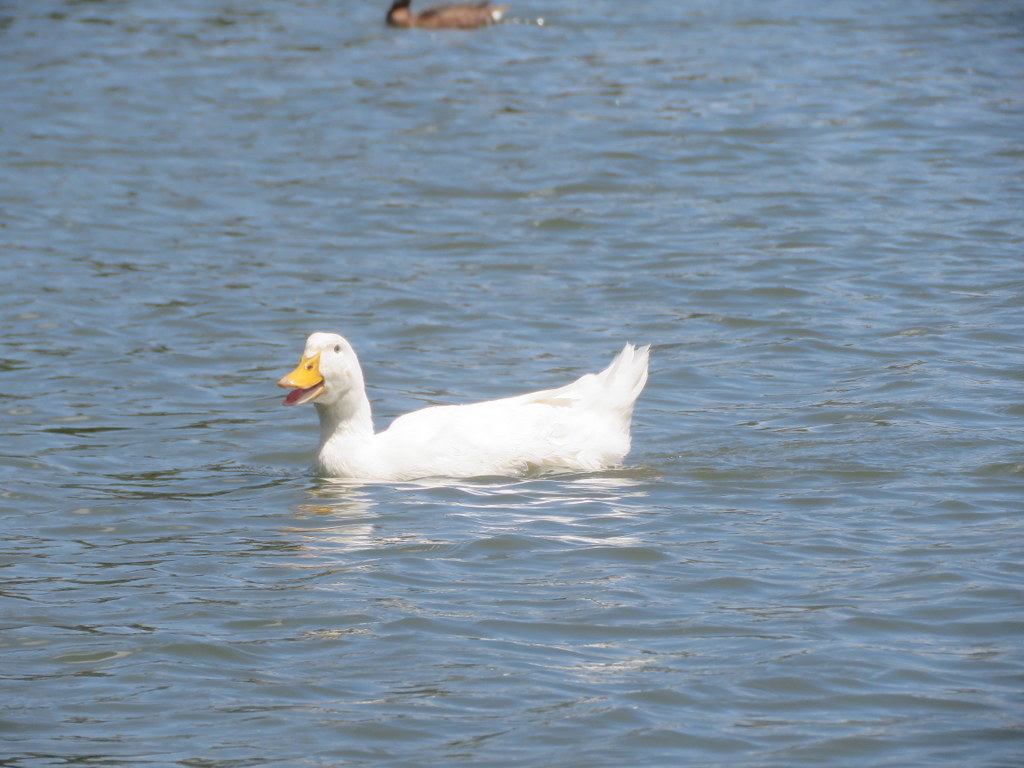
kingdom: Animalia
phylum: Chordata
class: Aves
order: Anseriformes
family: Anatidae
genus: Anas
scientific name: Anas platyrhynchos
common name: Mallard
